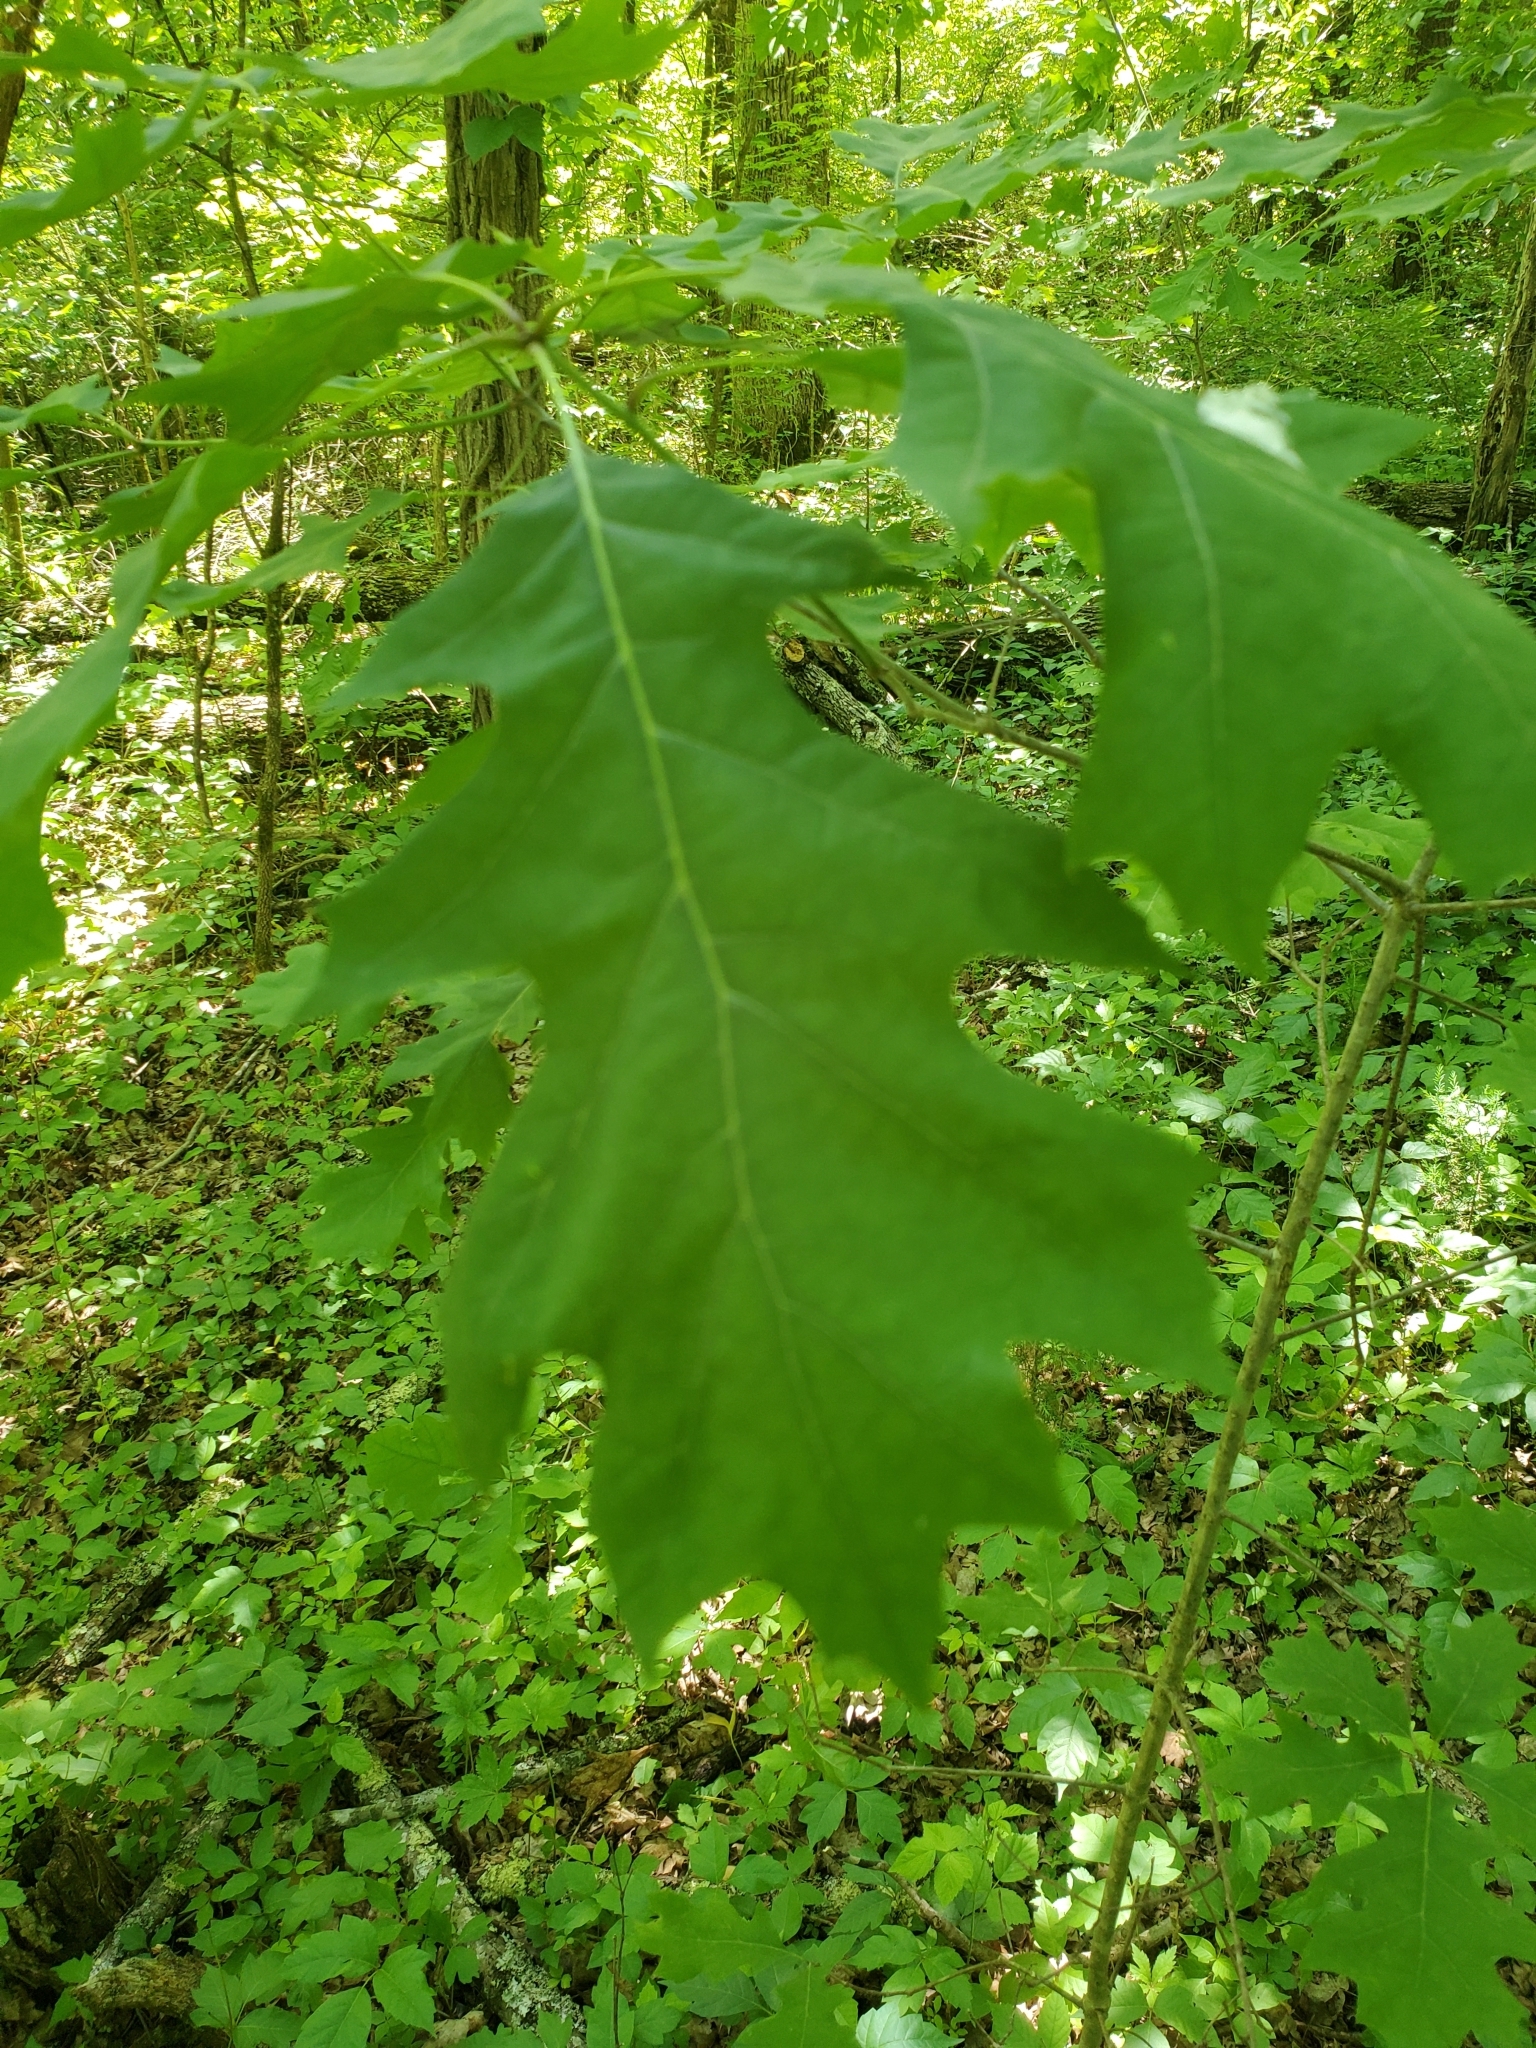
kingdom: Plantae
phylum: Tracheophyta
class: Magnoliopsida
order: Fagales
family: Fagaceae
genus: Quercus
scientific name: Quercus rubra
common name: Red oak
